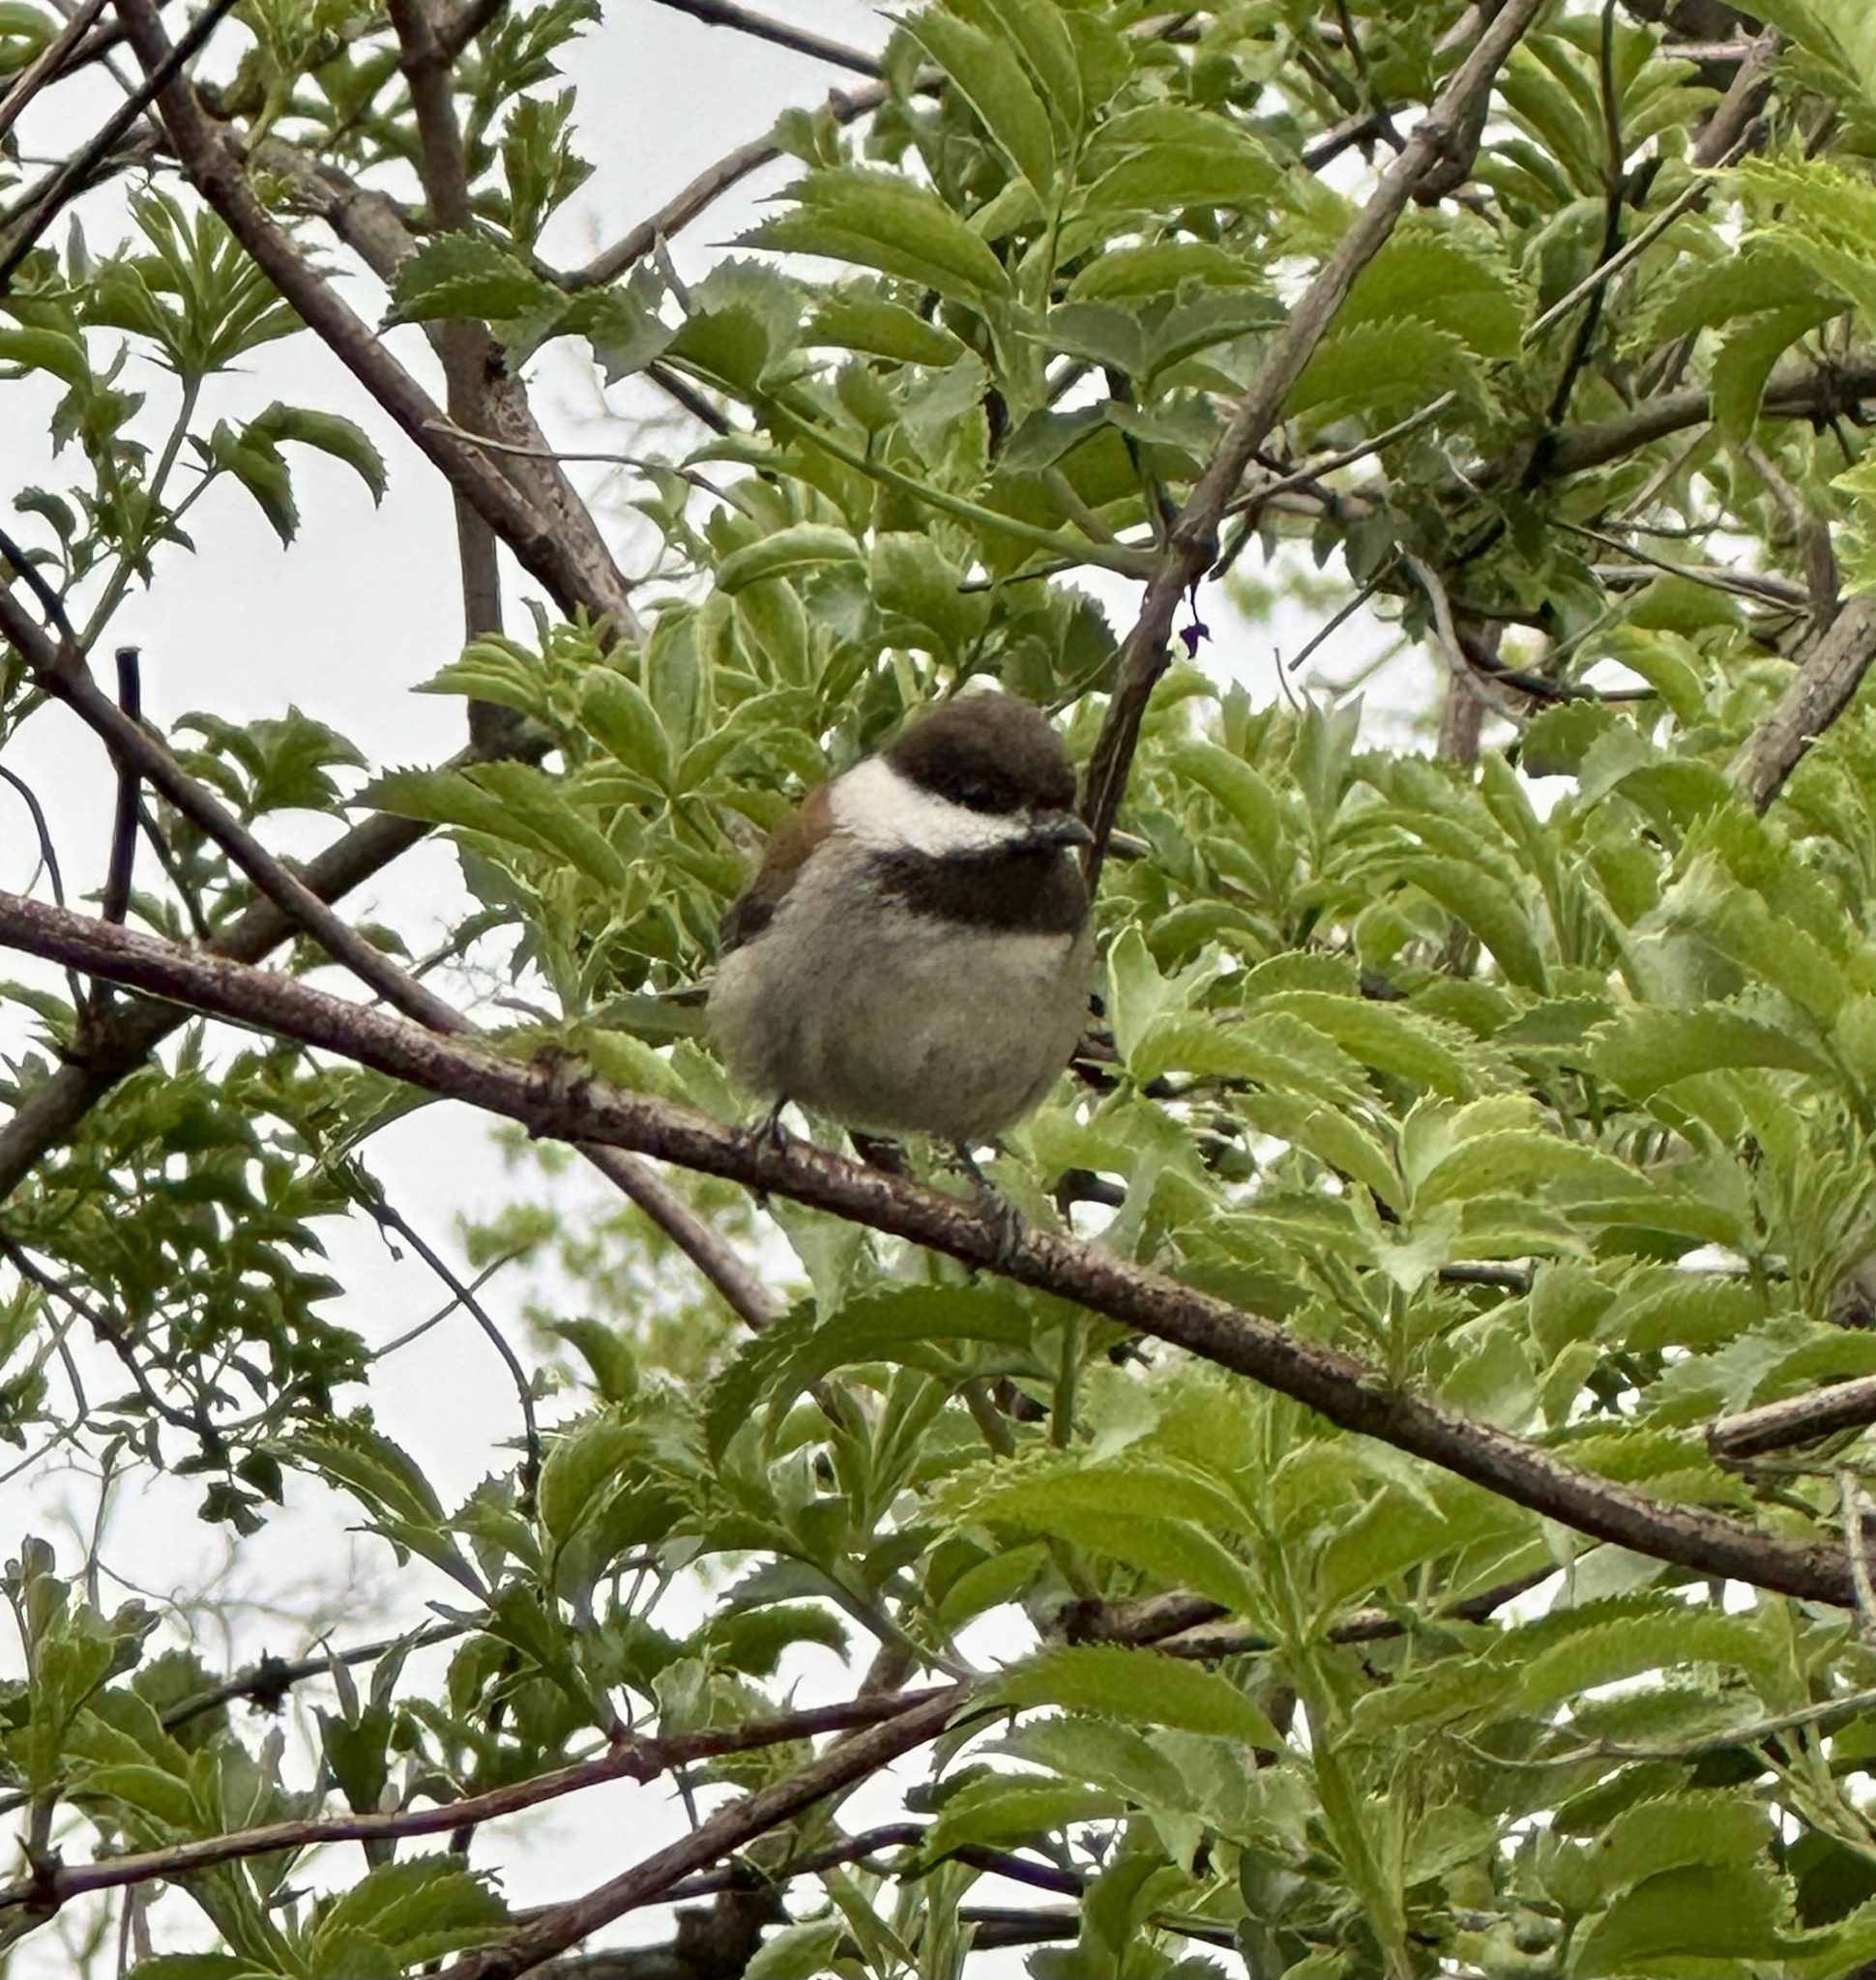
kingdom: Animalia
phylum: Chordata
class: Aves
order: Passeriformes
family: Paridae
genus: Poecile
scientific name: Poecile rufescens
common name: Chestnut-backed chickadee
